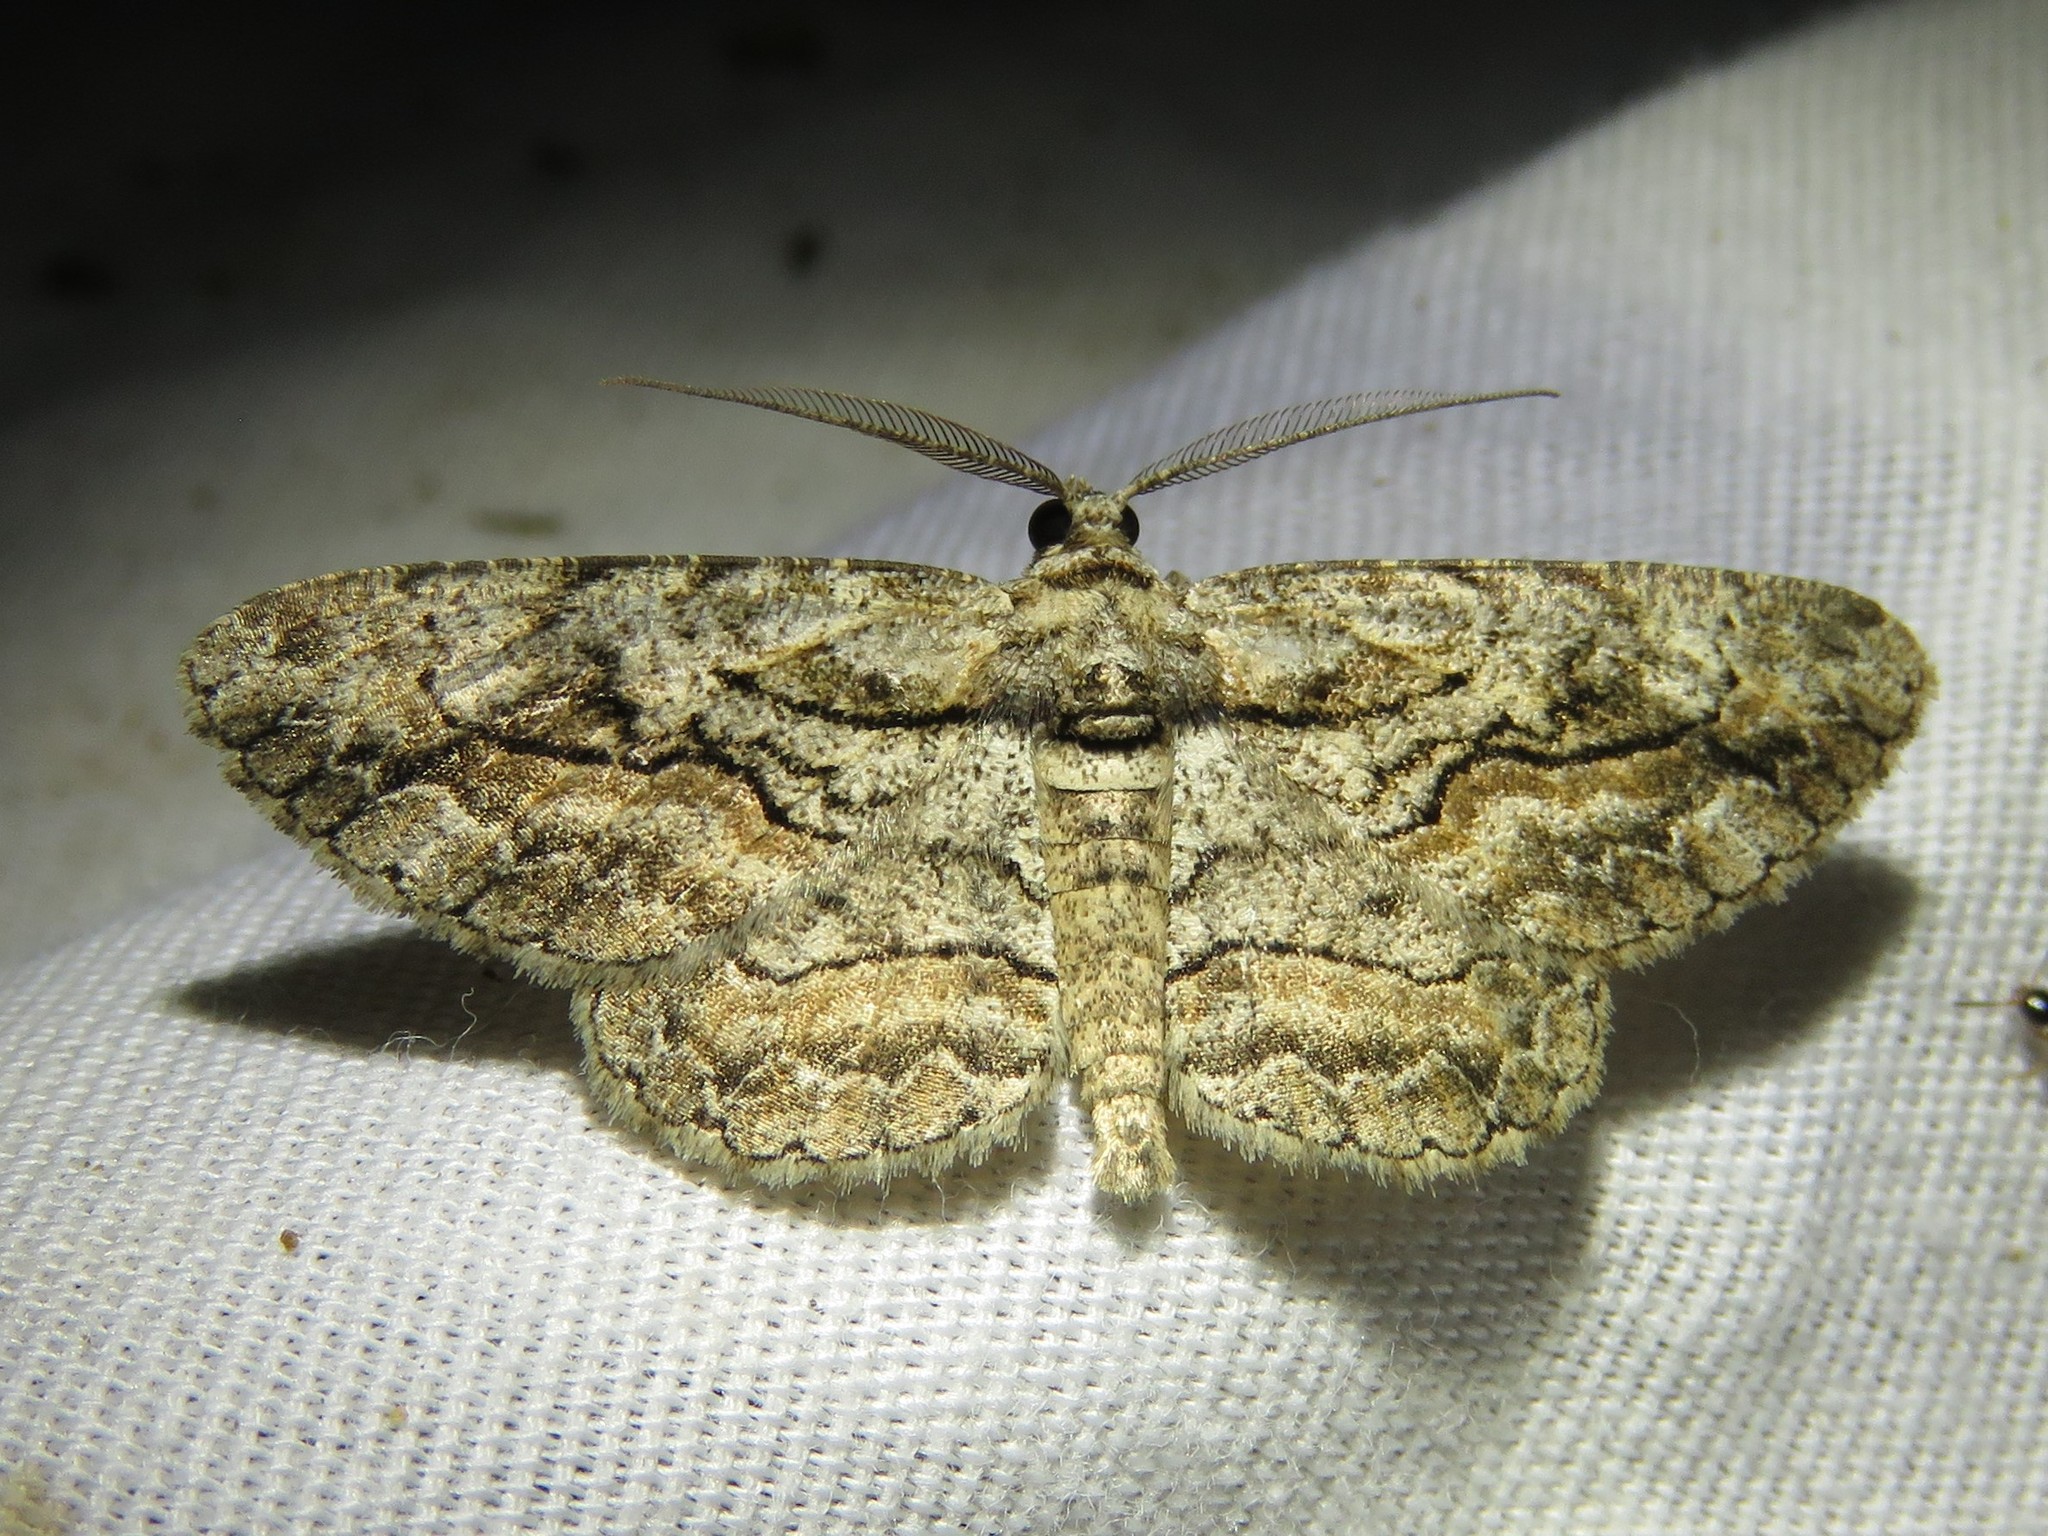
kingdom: Animalia
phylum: Arthropoda
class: Insecta
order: Lepidoptera
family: Geometridae
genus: Anavitrinella
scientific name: Anavitrinella pampinaria
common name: Common gray
